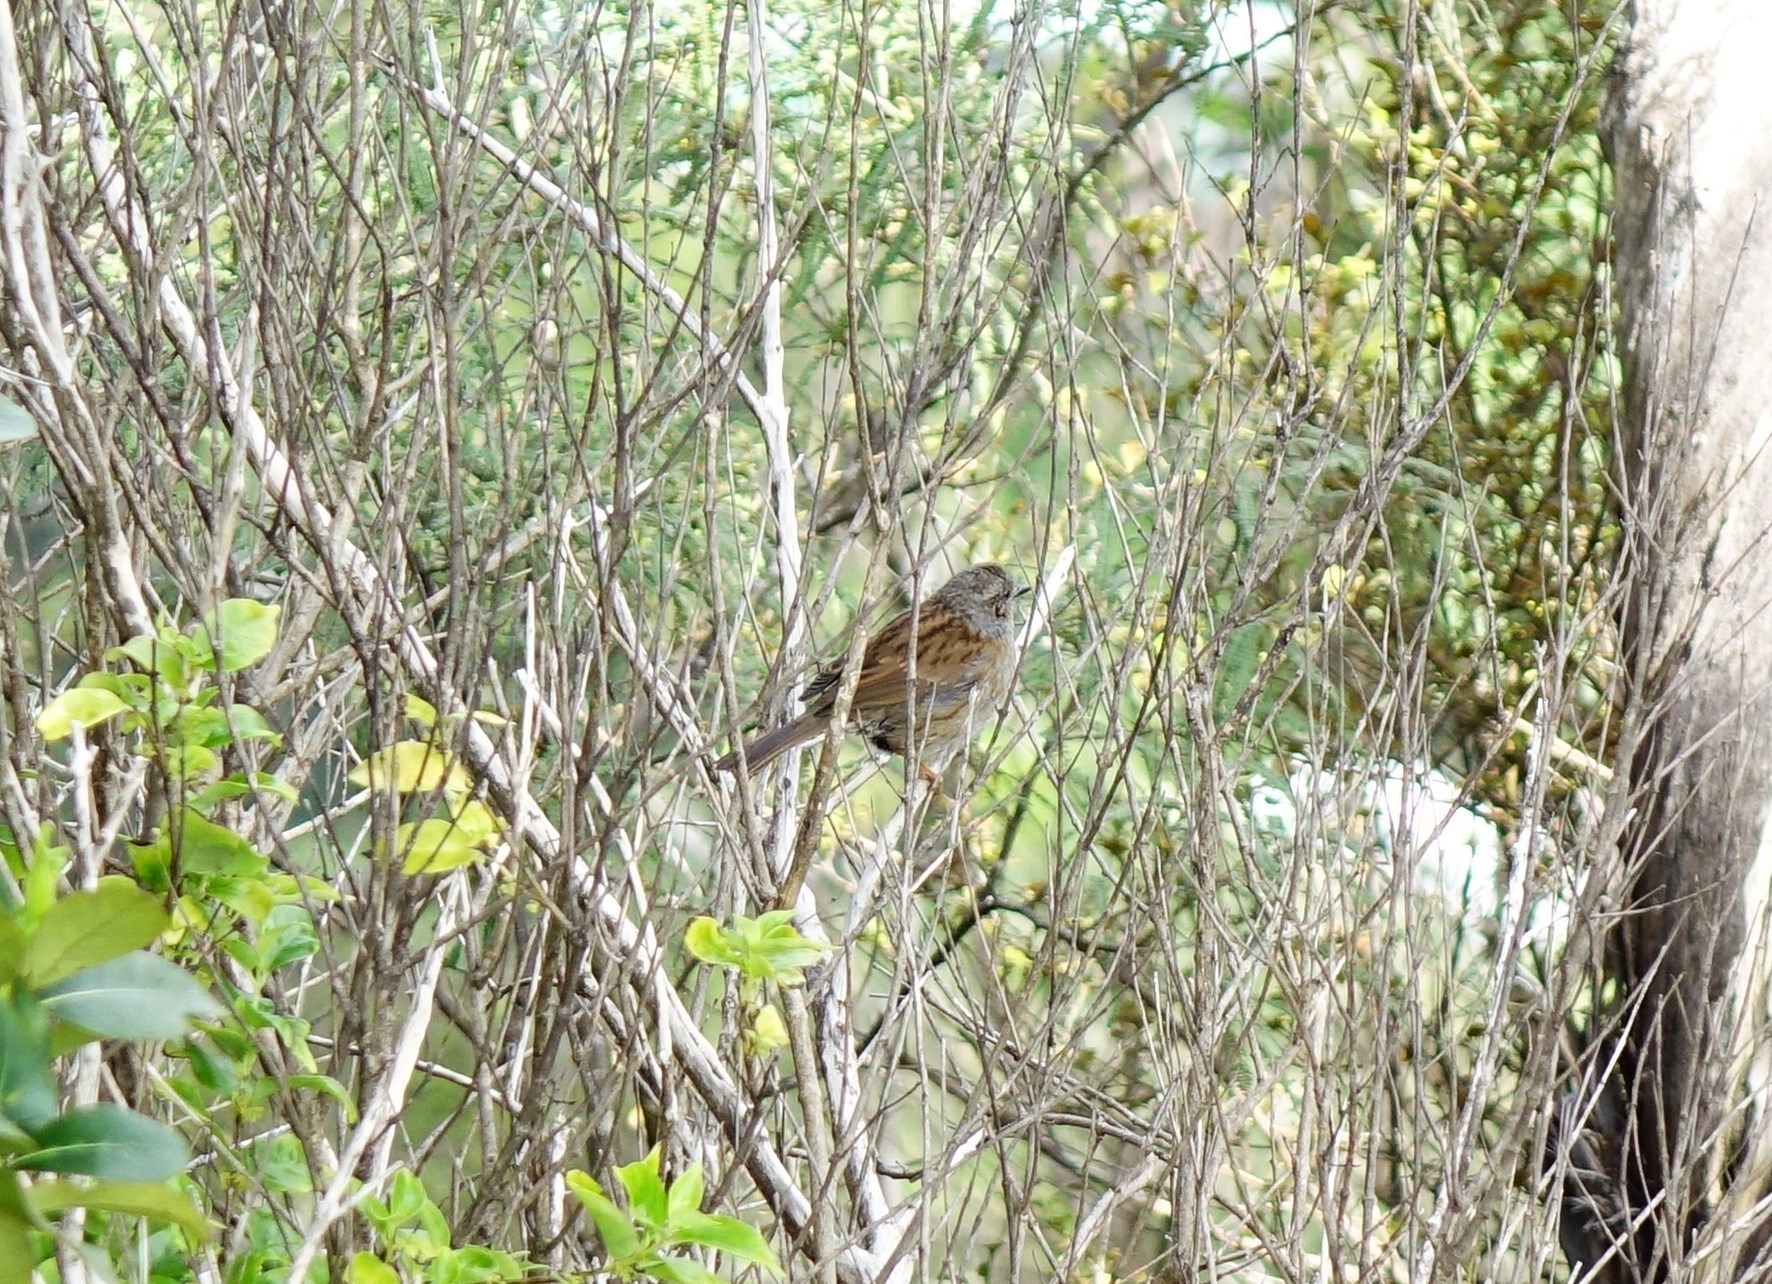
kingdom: Animalia
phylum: Chordata
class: Aves
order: Passeriformes
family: Prunellidae
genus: Prunella
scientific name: Prunella modularis
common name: Dunnock
